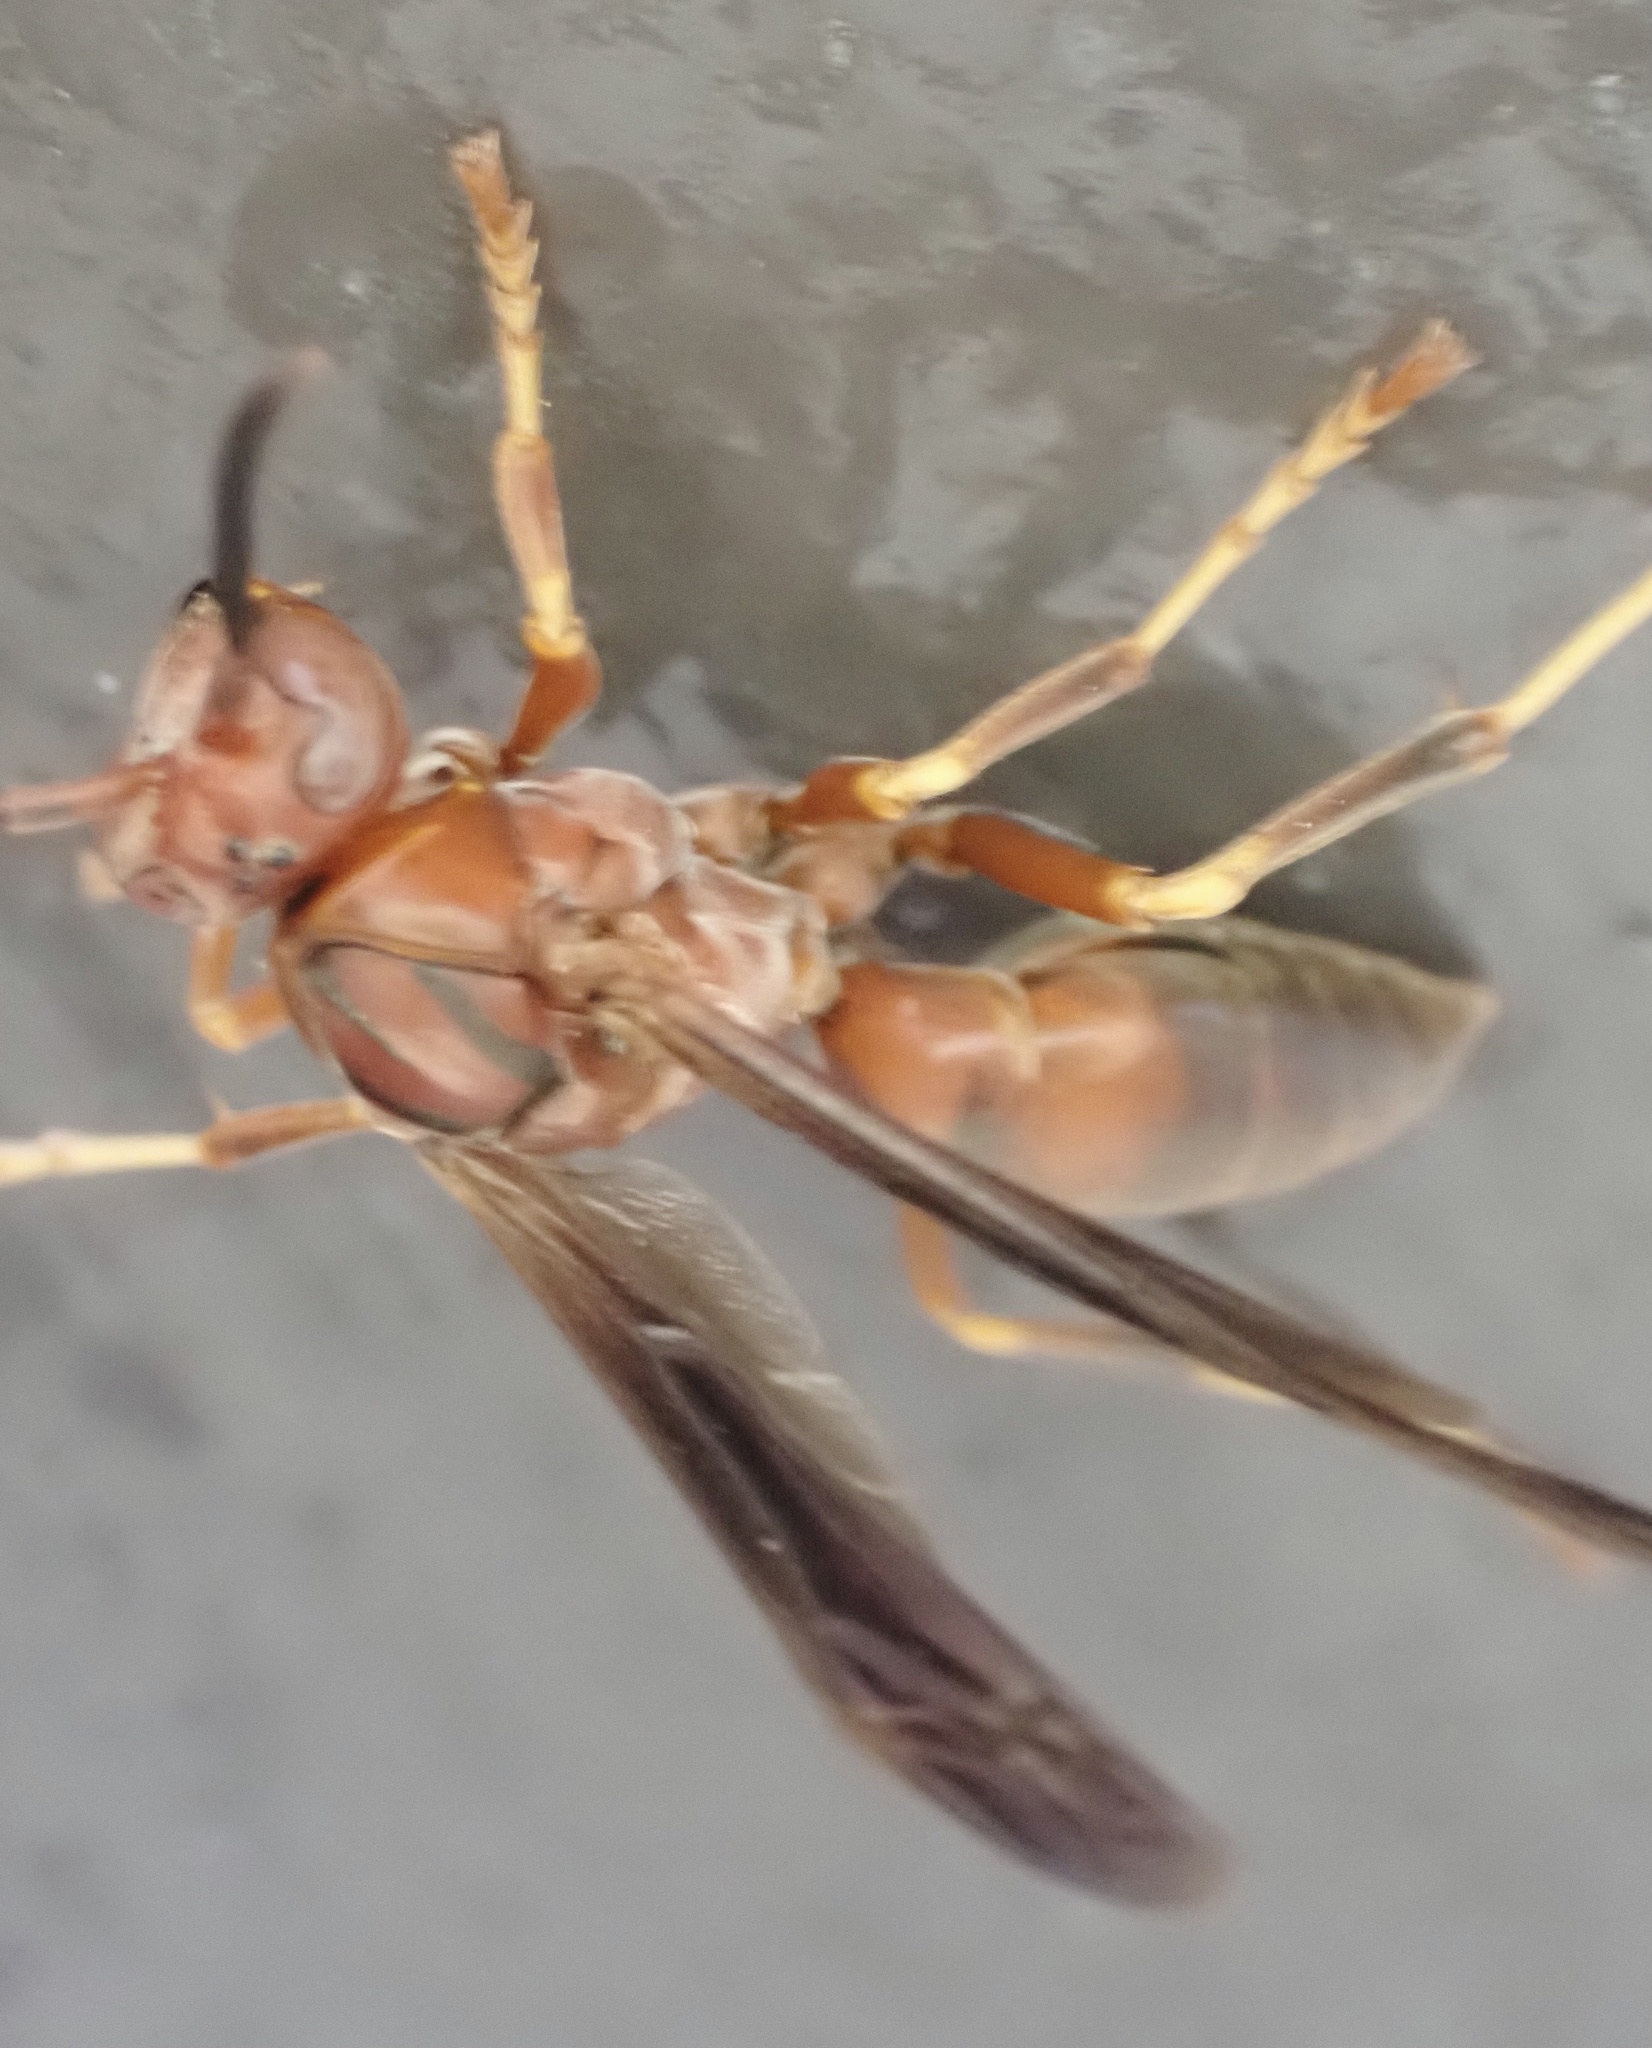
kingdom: Animalia
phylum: Arthropoda
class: Insecta
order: Hymenoptera
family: Eumenidae
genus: Polistes
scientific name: Polistes fuscatus
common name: Dark paper wasp
